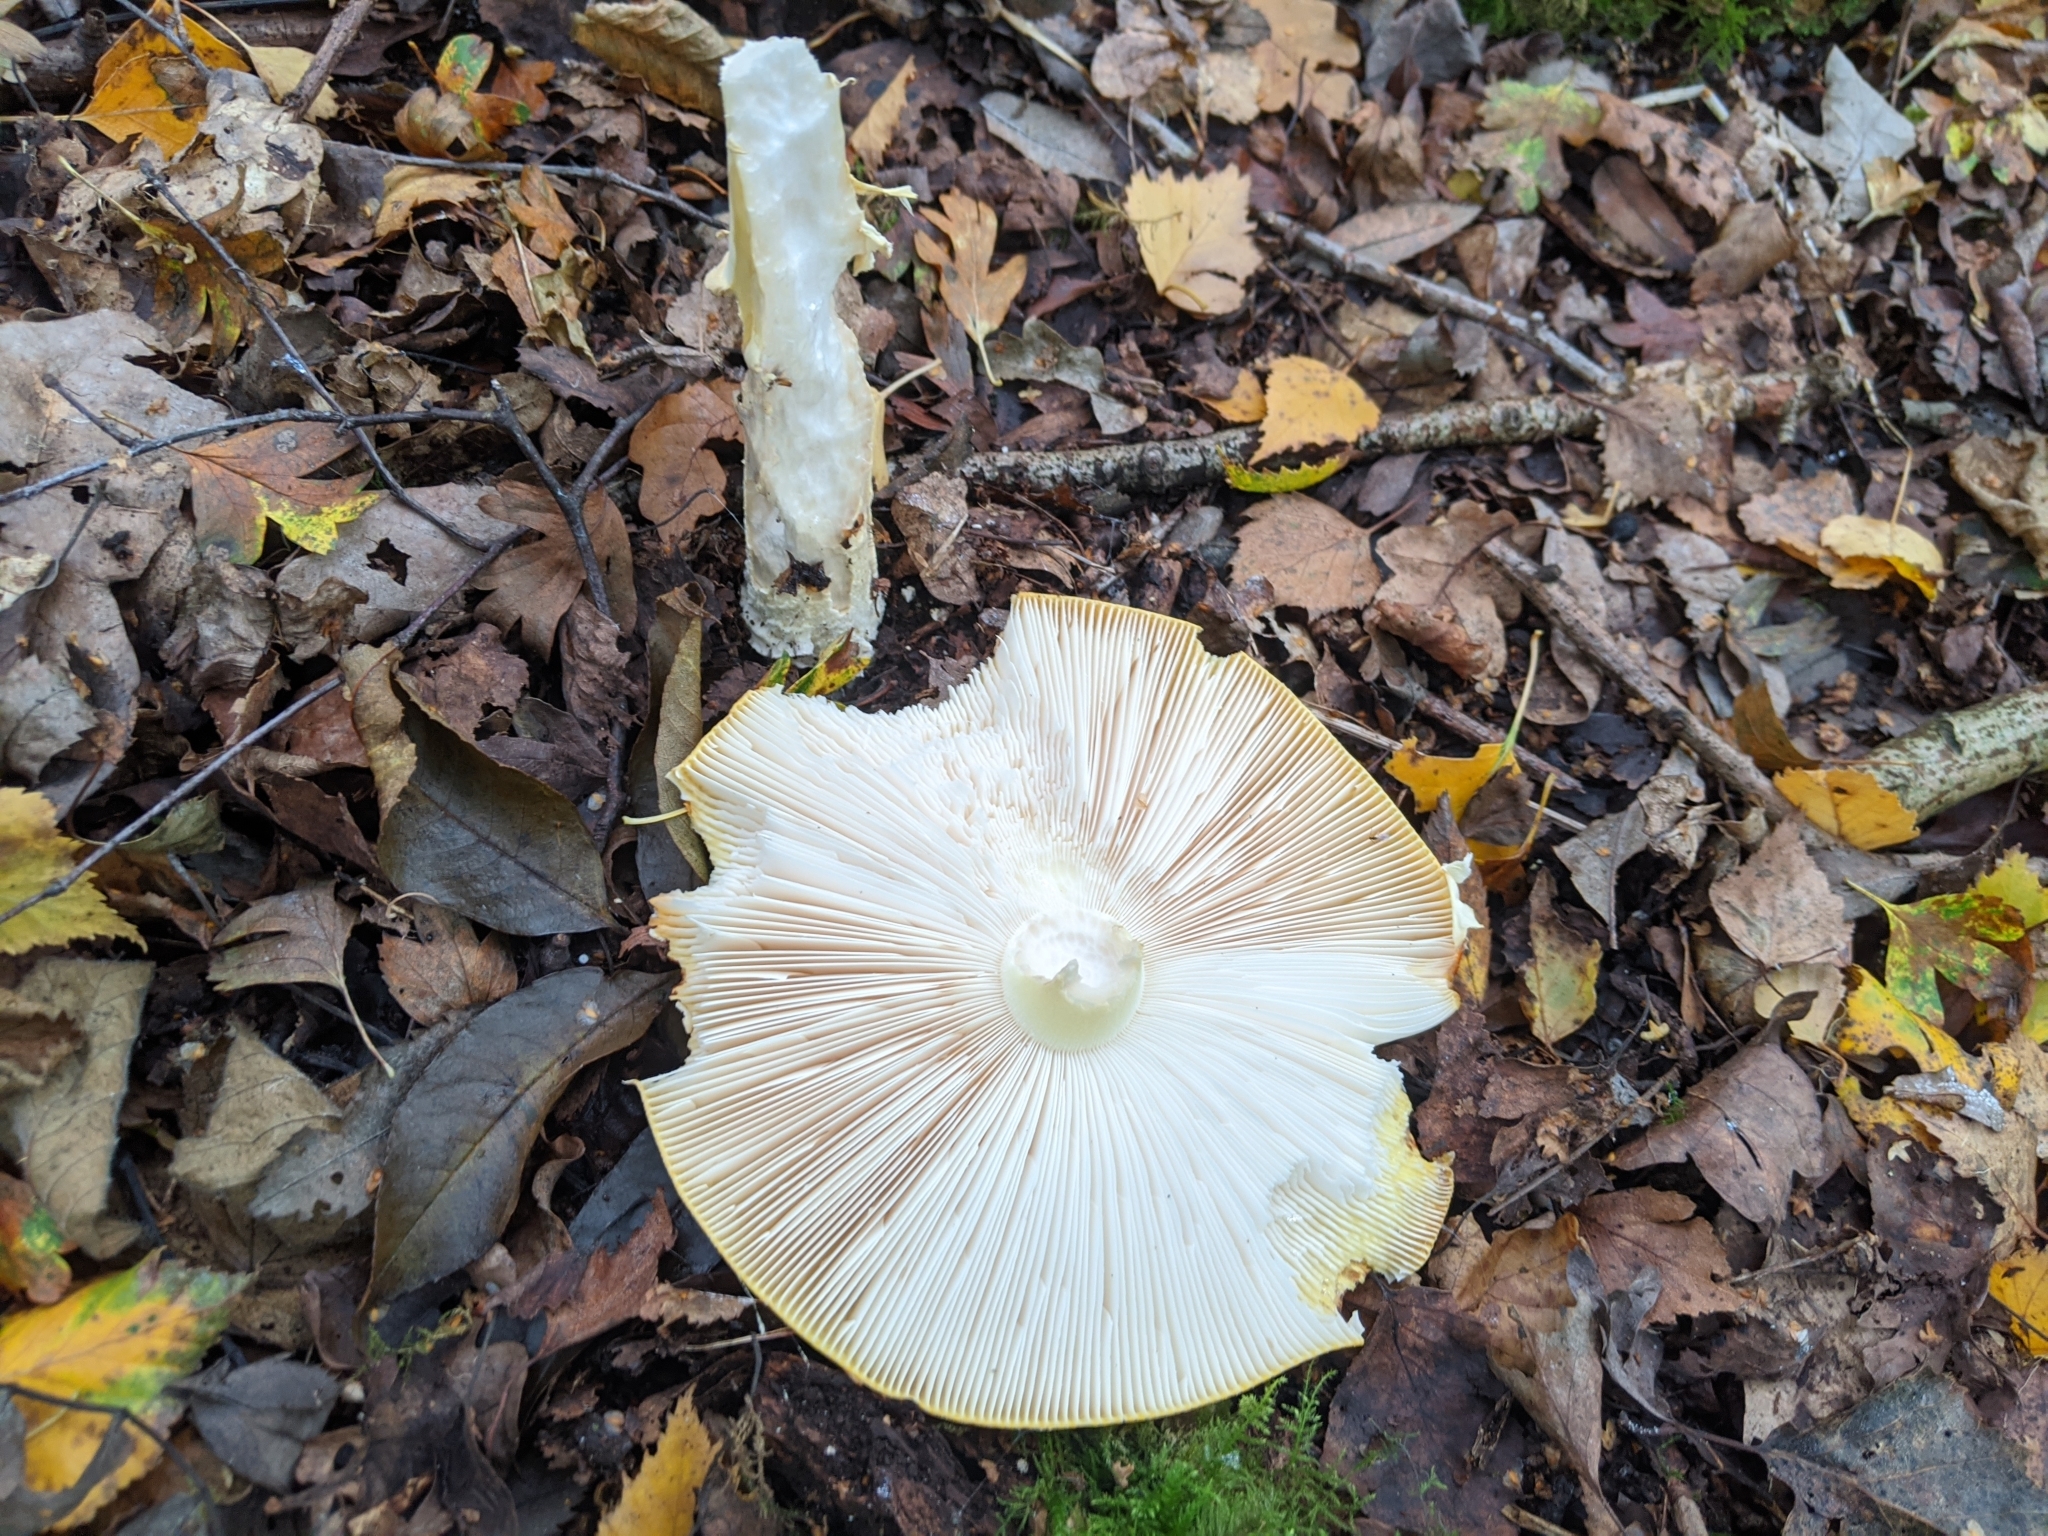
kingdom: Fungi
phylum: Basidiomycota
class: Agaricomycetes
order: Agaricales
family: Amanitaceae
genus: Amanita
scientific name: Amanita muscaria
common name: Fly agaric
